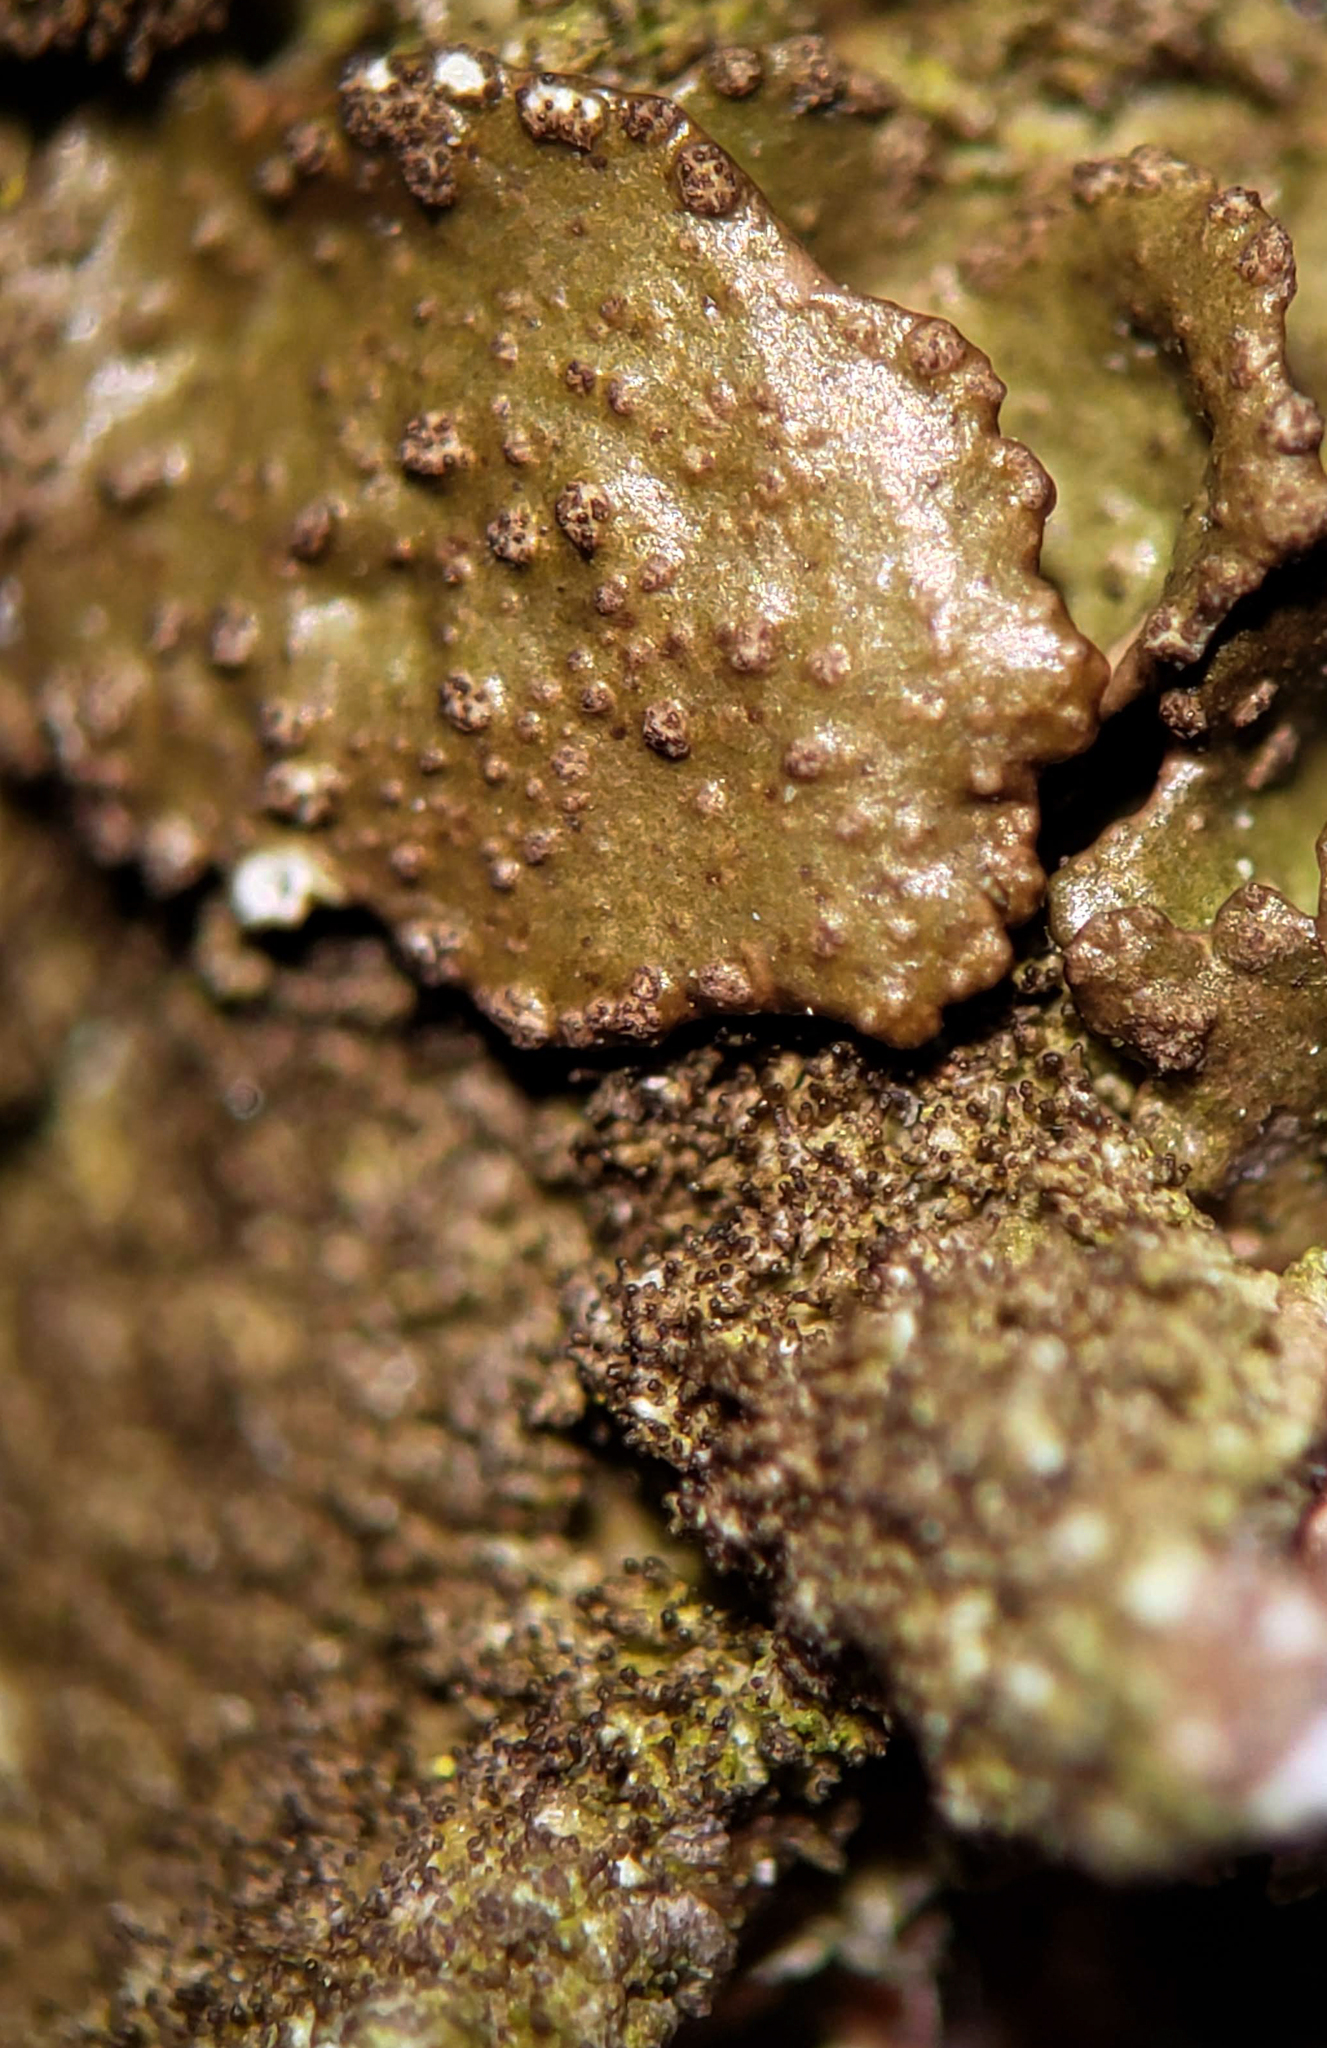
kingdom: Fungi
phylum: Ascomycota
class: Lecanoromycetes
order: Lecanorales
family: Parmeliaceae
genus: Melanelixia
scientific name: Melanelixia subaurifera
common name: Abraded camouflage lichen
